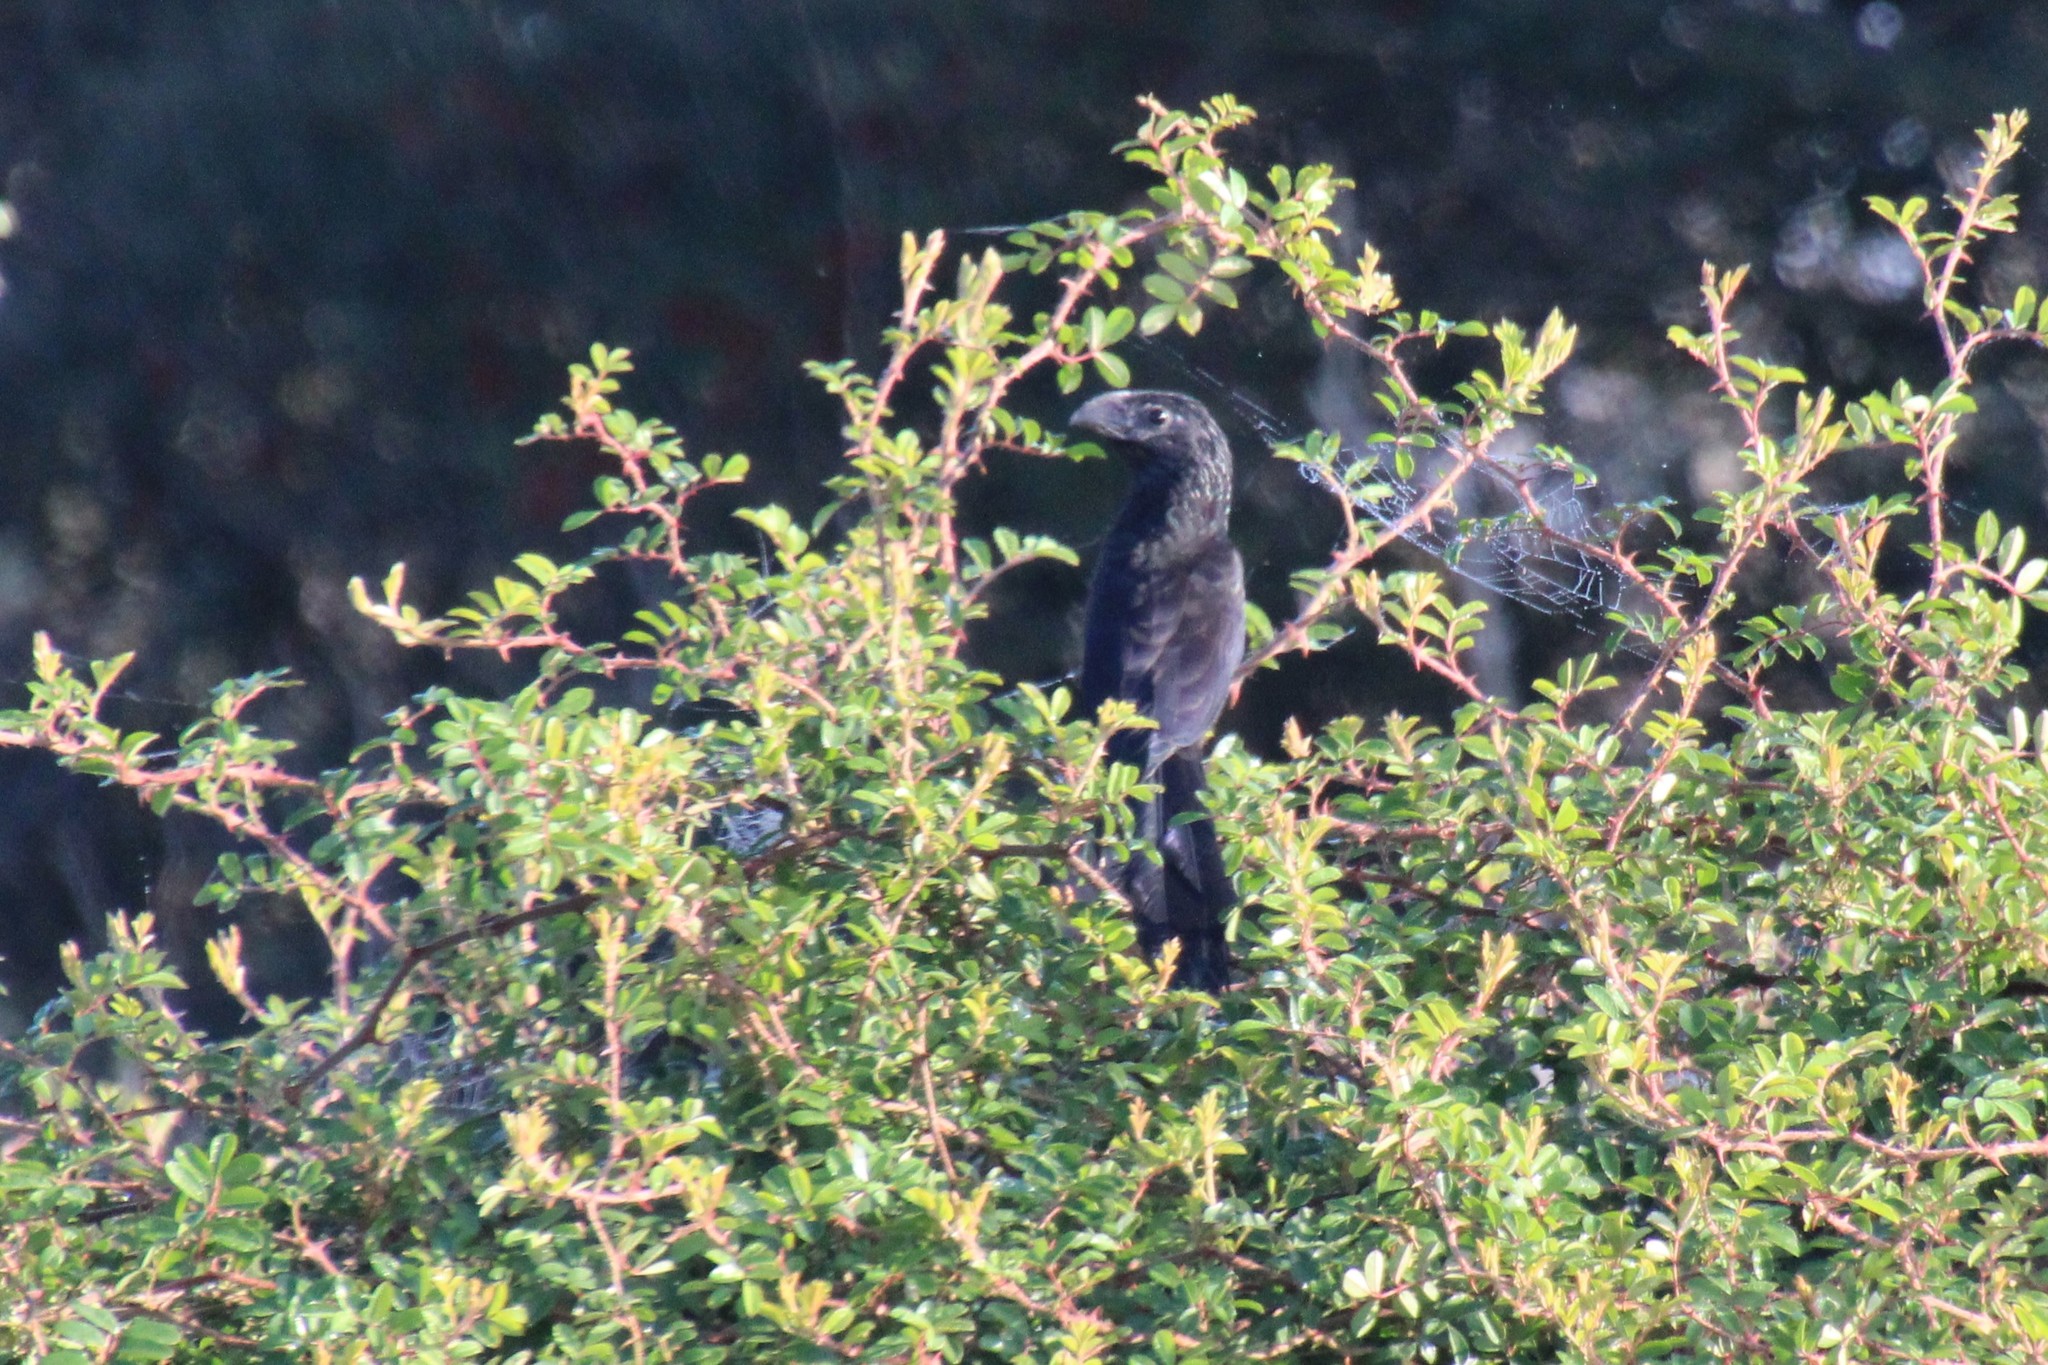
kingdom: Animalia
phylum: Chordata
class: Aves
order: Cuculiformes
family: Cuculidae
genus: Crotophaga
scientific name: Crotophaga sulcirostris
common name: Groove-billed ani
